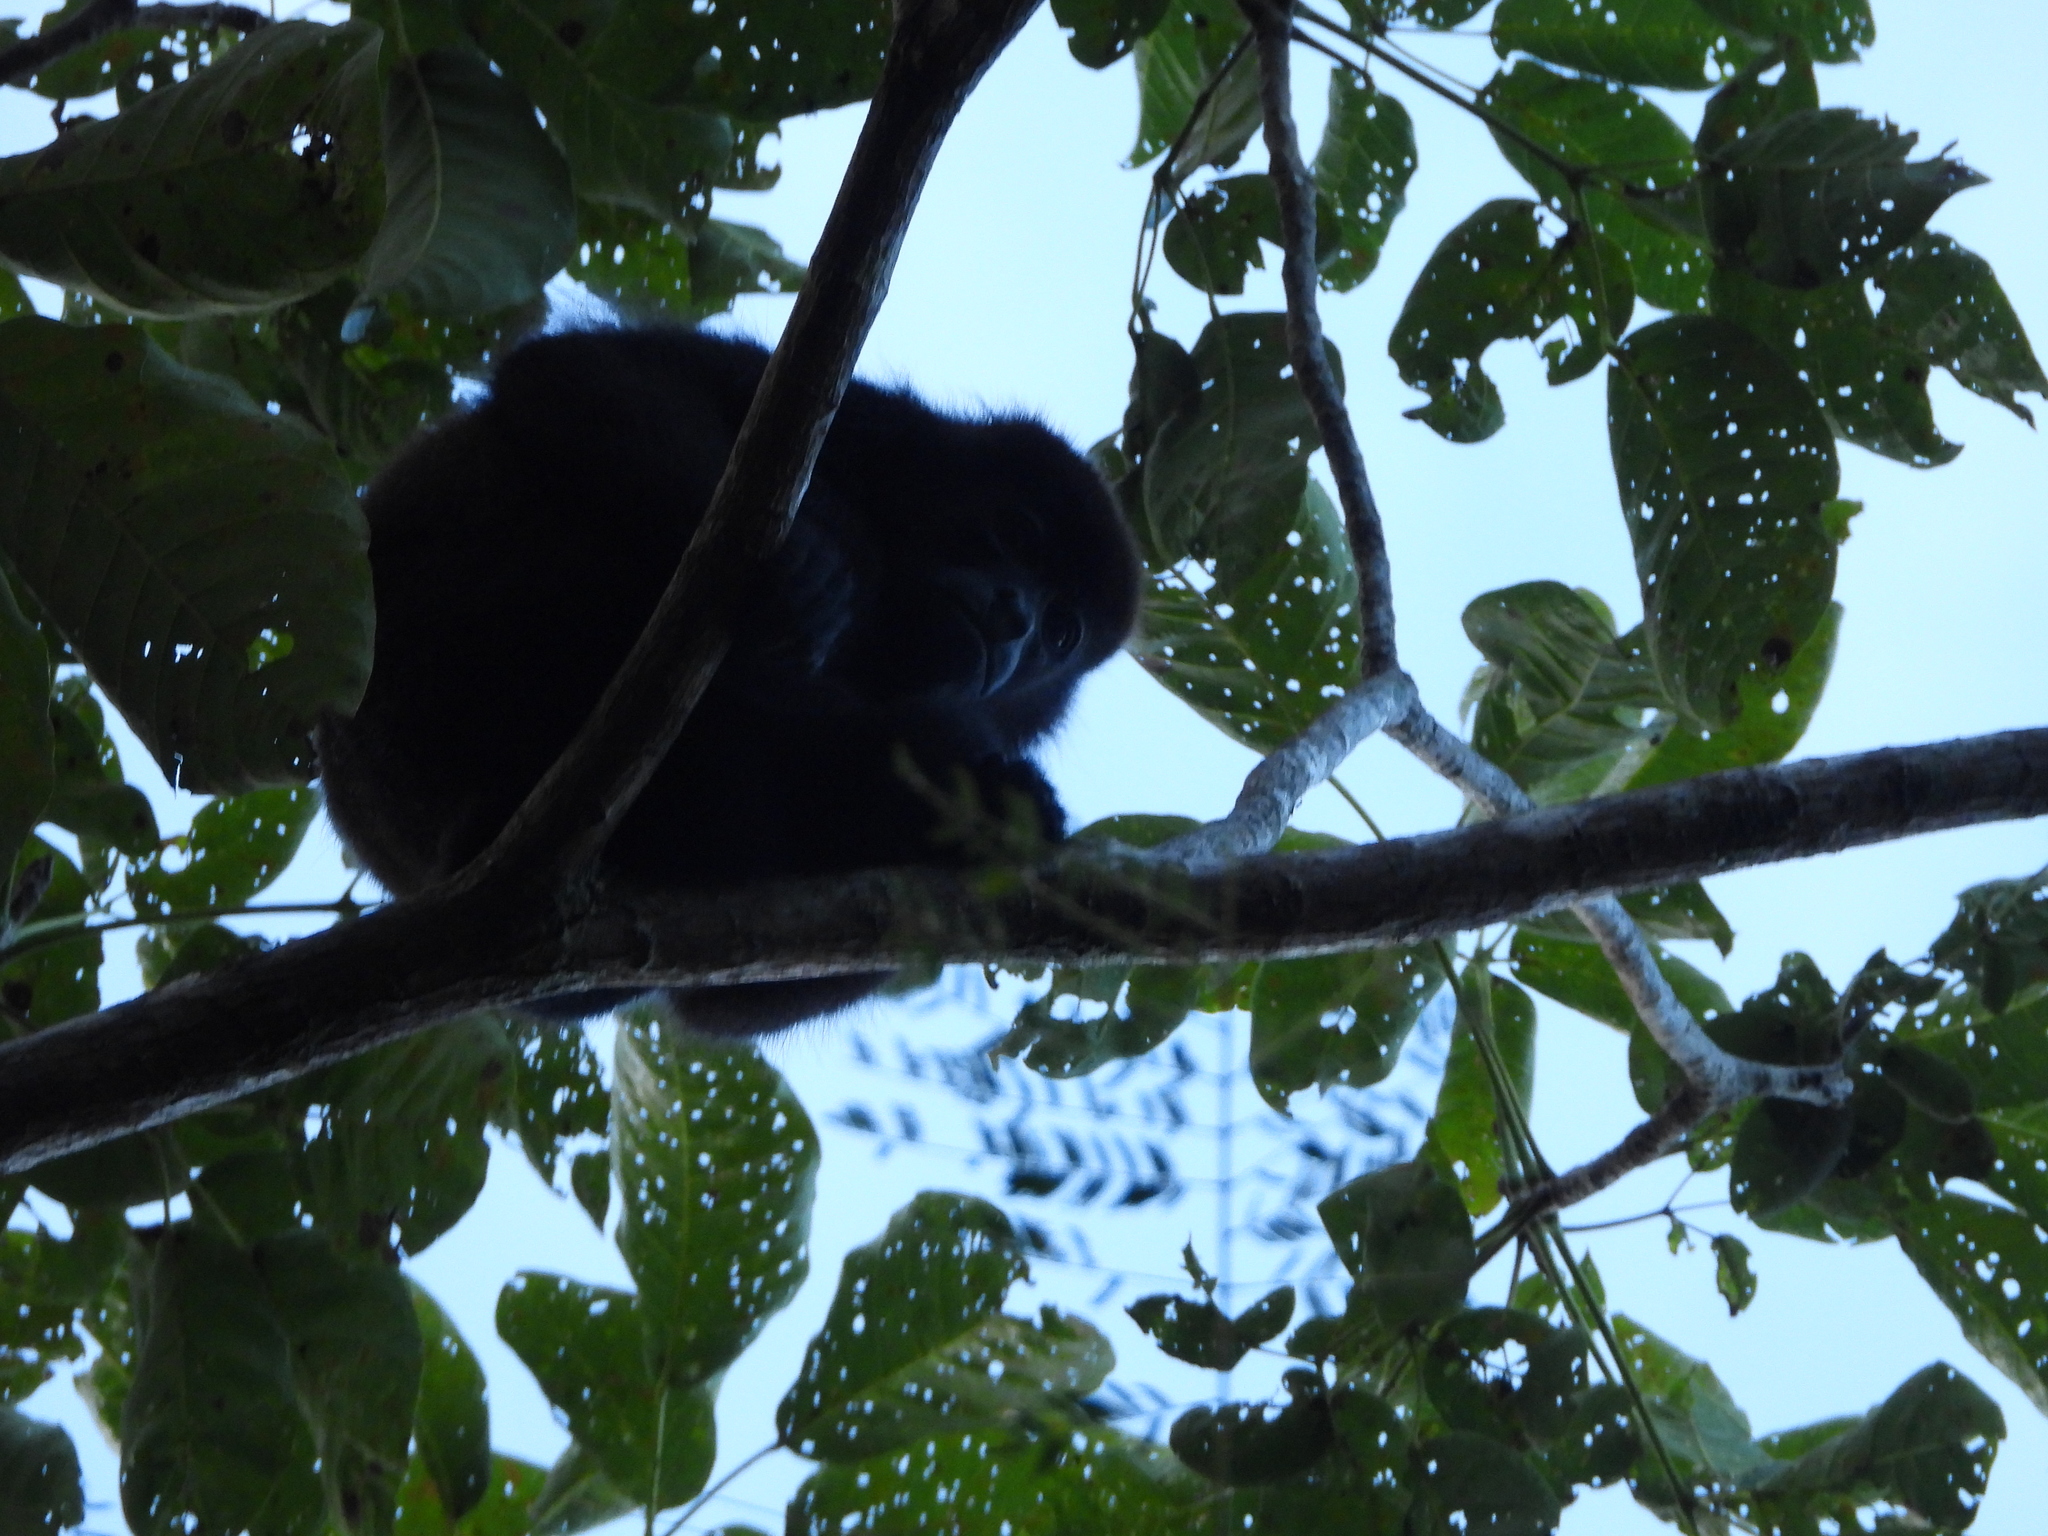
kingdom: Animalia
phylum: Chordata
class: Mammalia
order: Primates
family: Atelidae
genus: Alouatta
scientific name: Alouatta palliata
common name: Mantled howler
